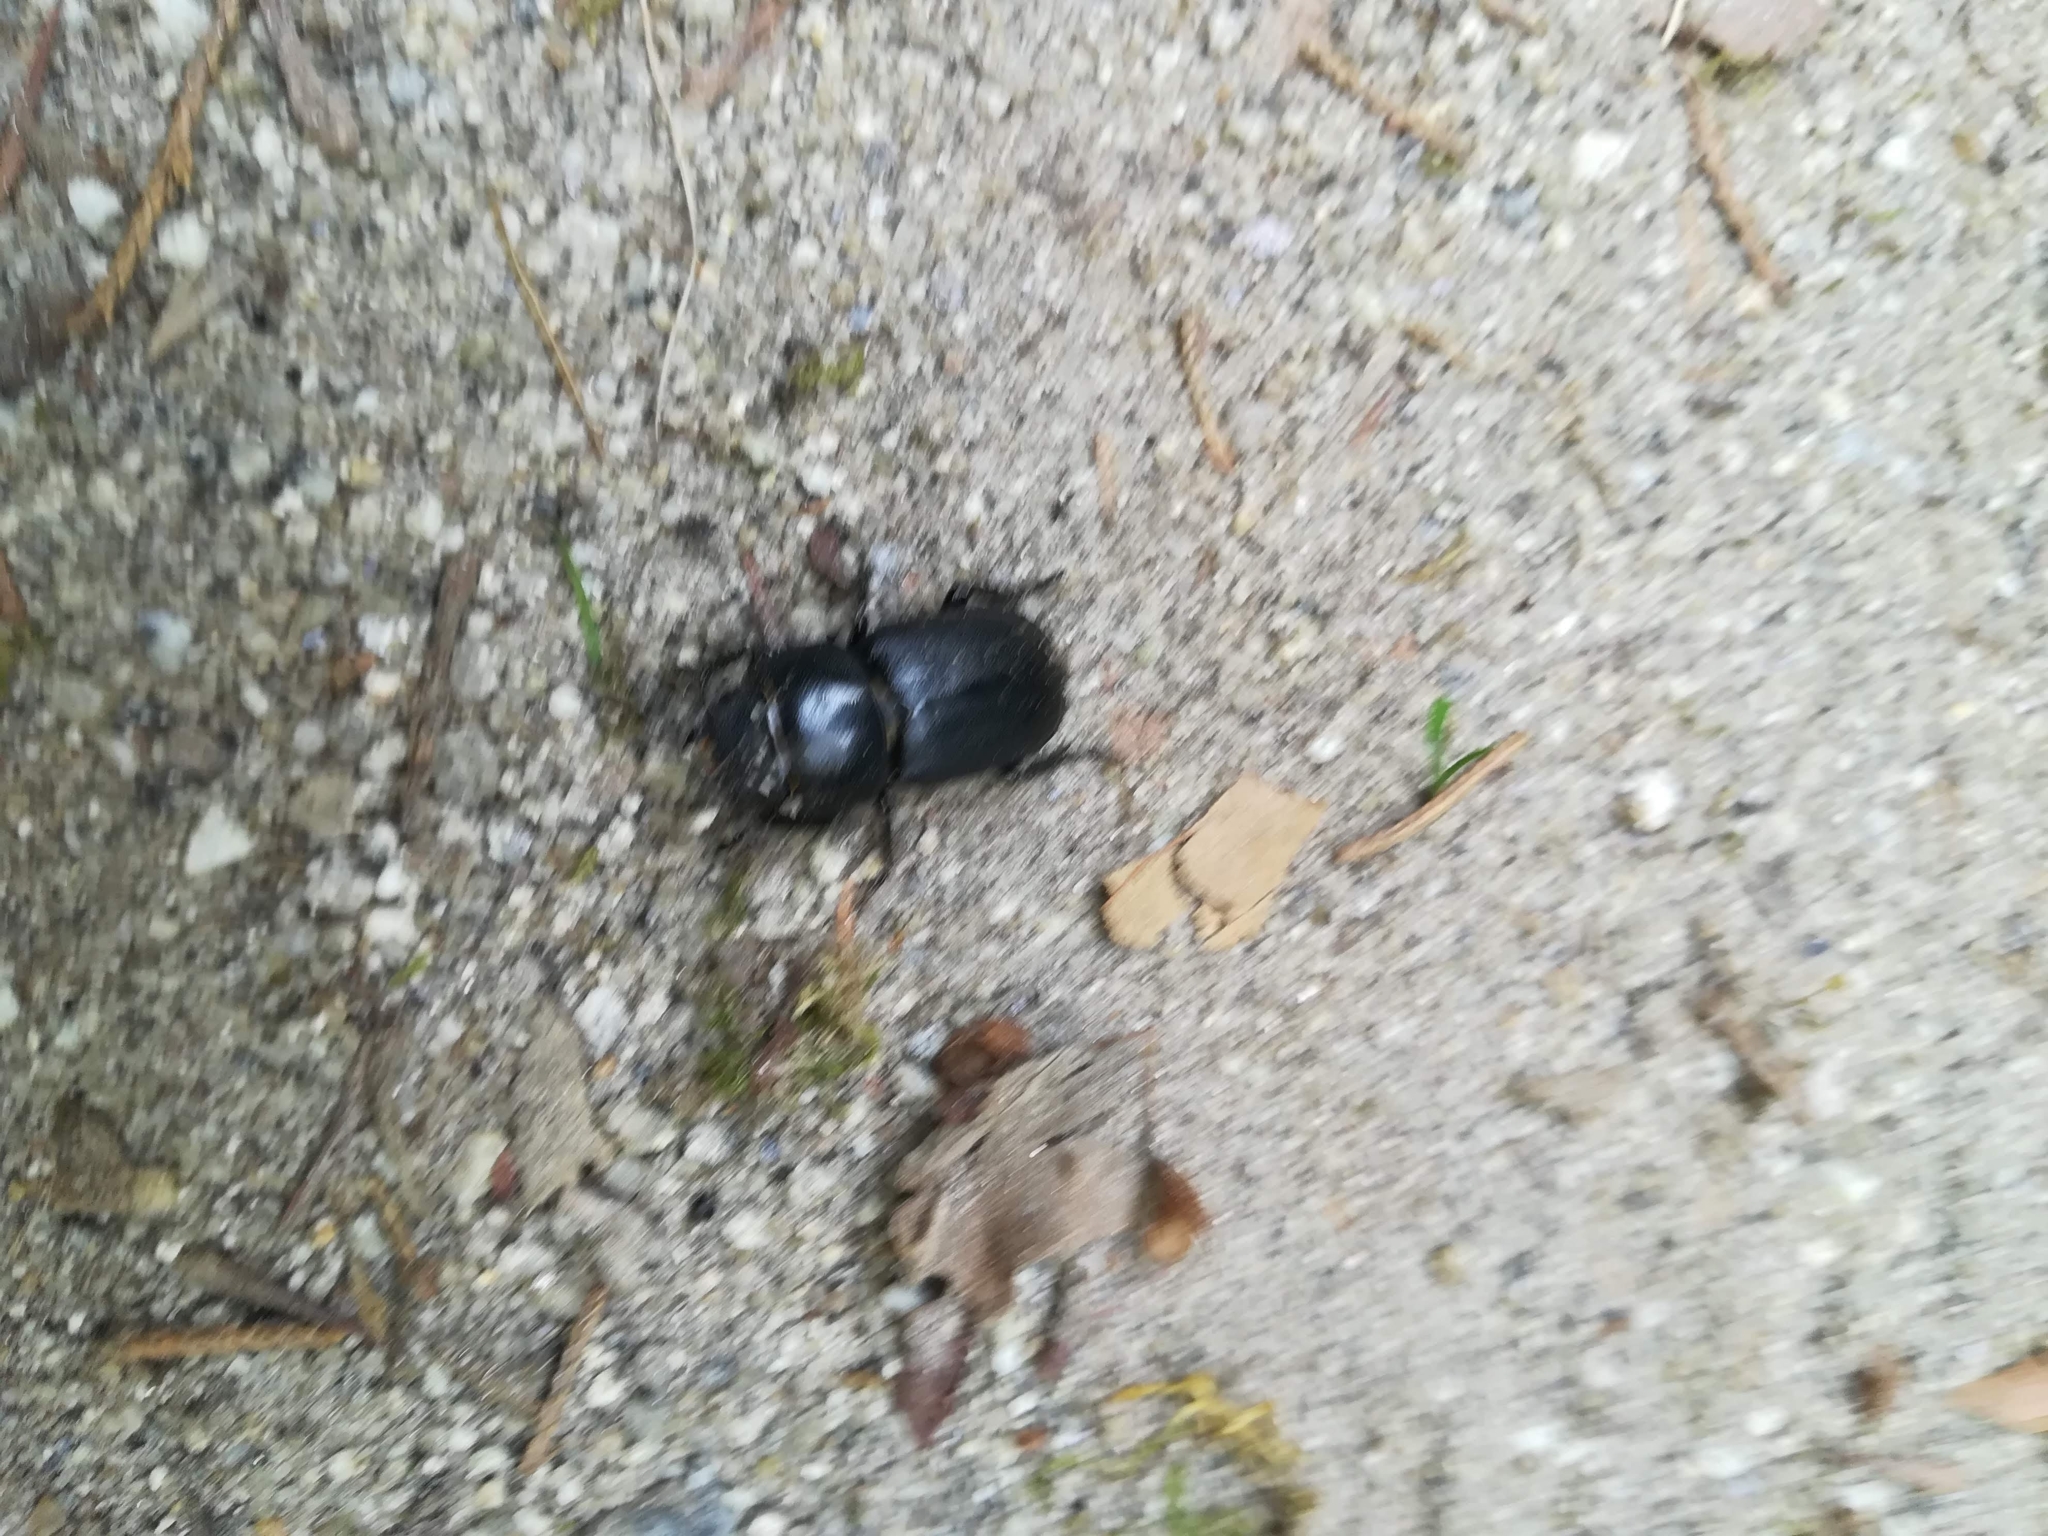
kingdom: Animalia
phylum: Arthropoda
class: Insecta
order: Coleoptera
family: Lucanidae
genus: Dorcus
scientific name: Dorcus parallelipipedus
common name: Lesser stag beetle
